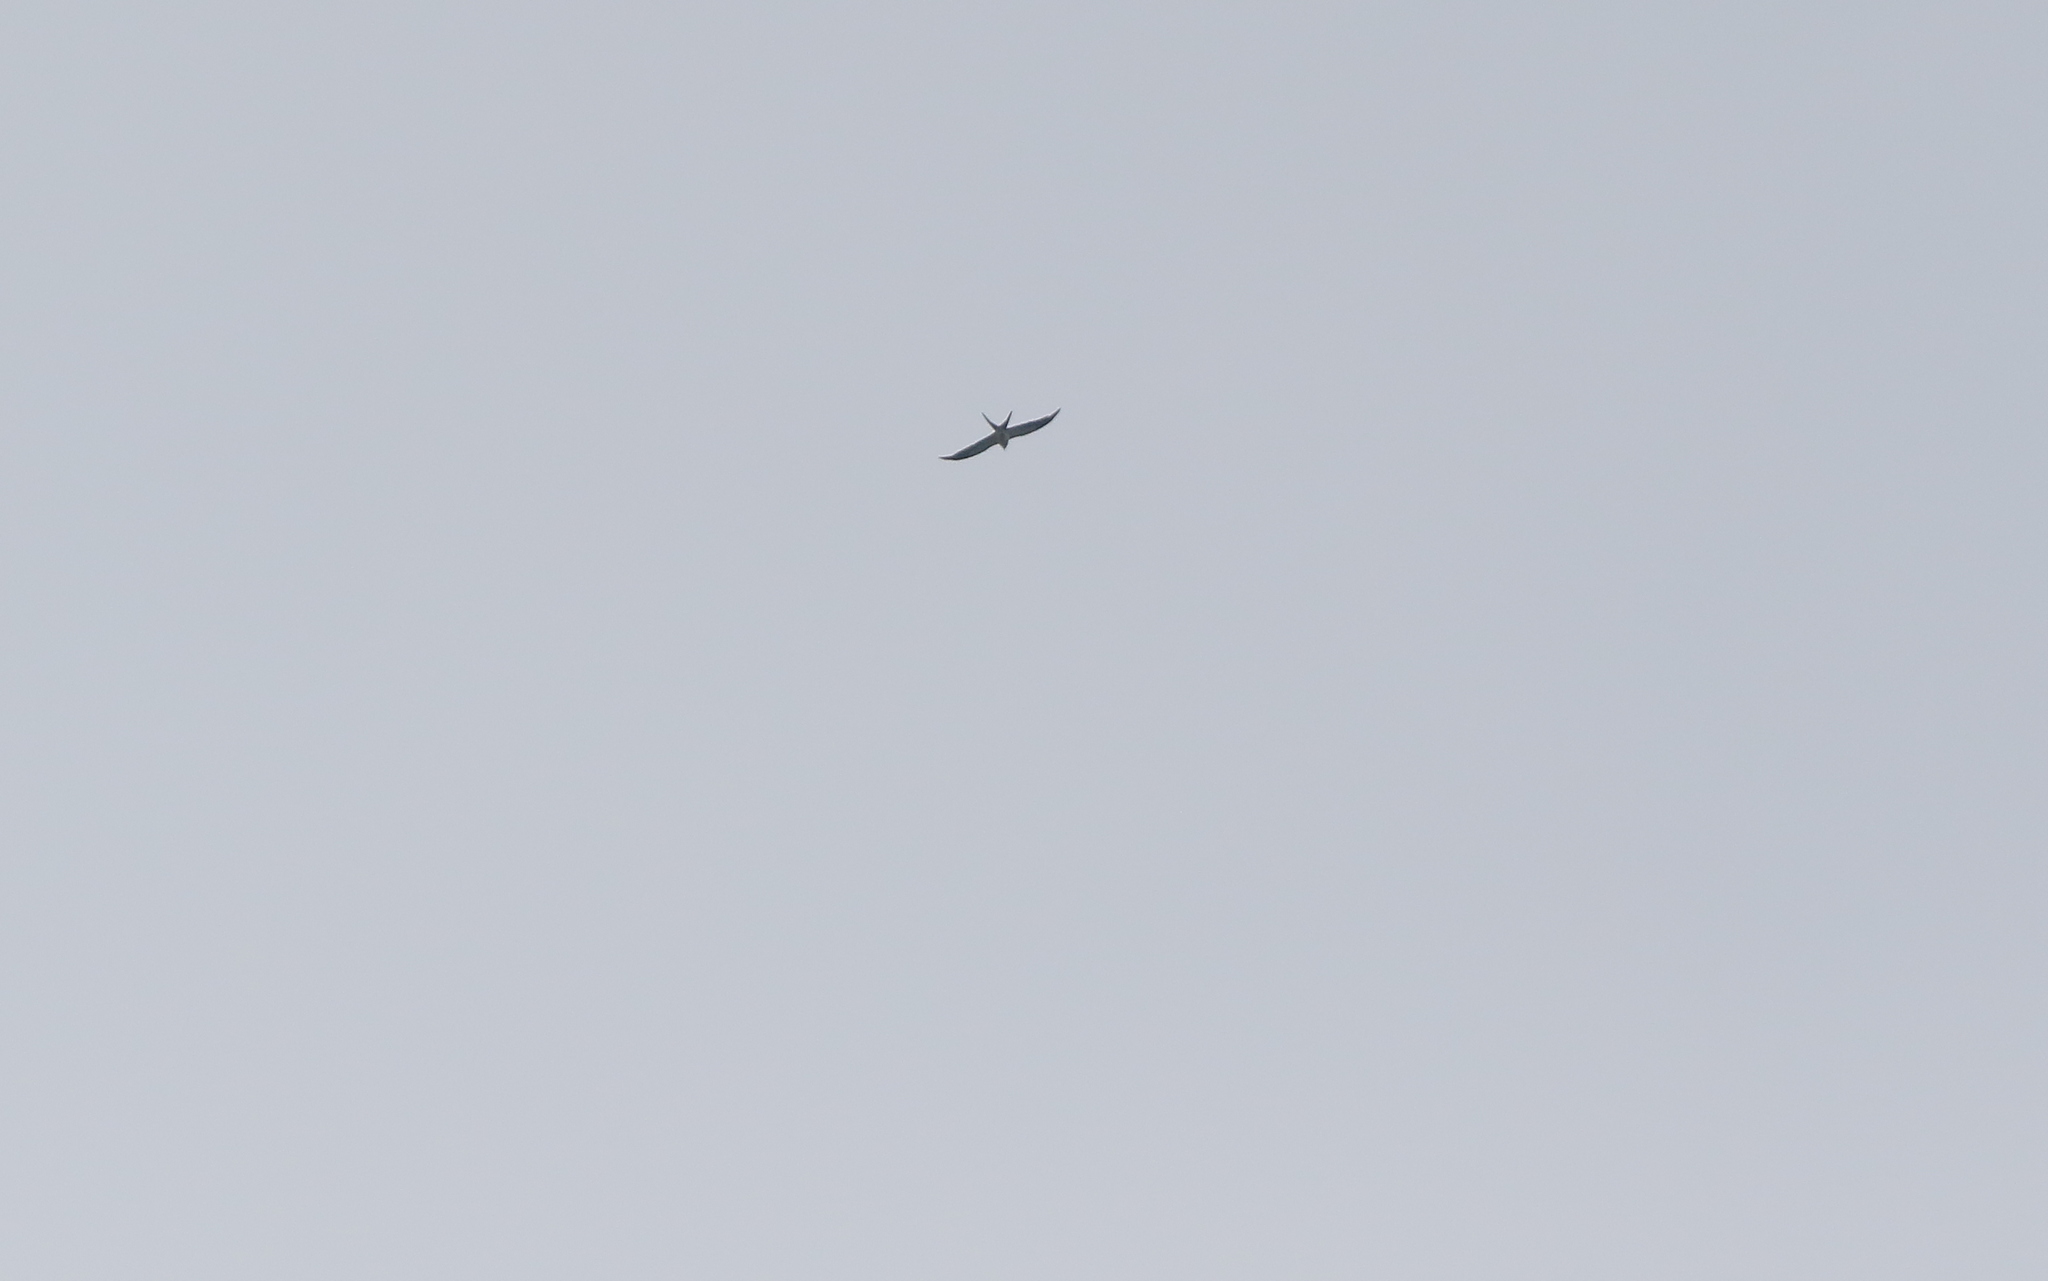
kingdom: Animalia
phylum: Chordata
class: Aves
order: Accipitriformes
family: Accipitridae
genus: Elanoides
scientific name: Elanoides forficatus
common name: Swallow-tailed kite
